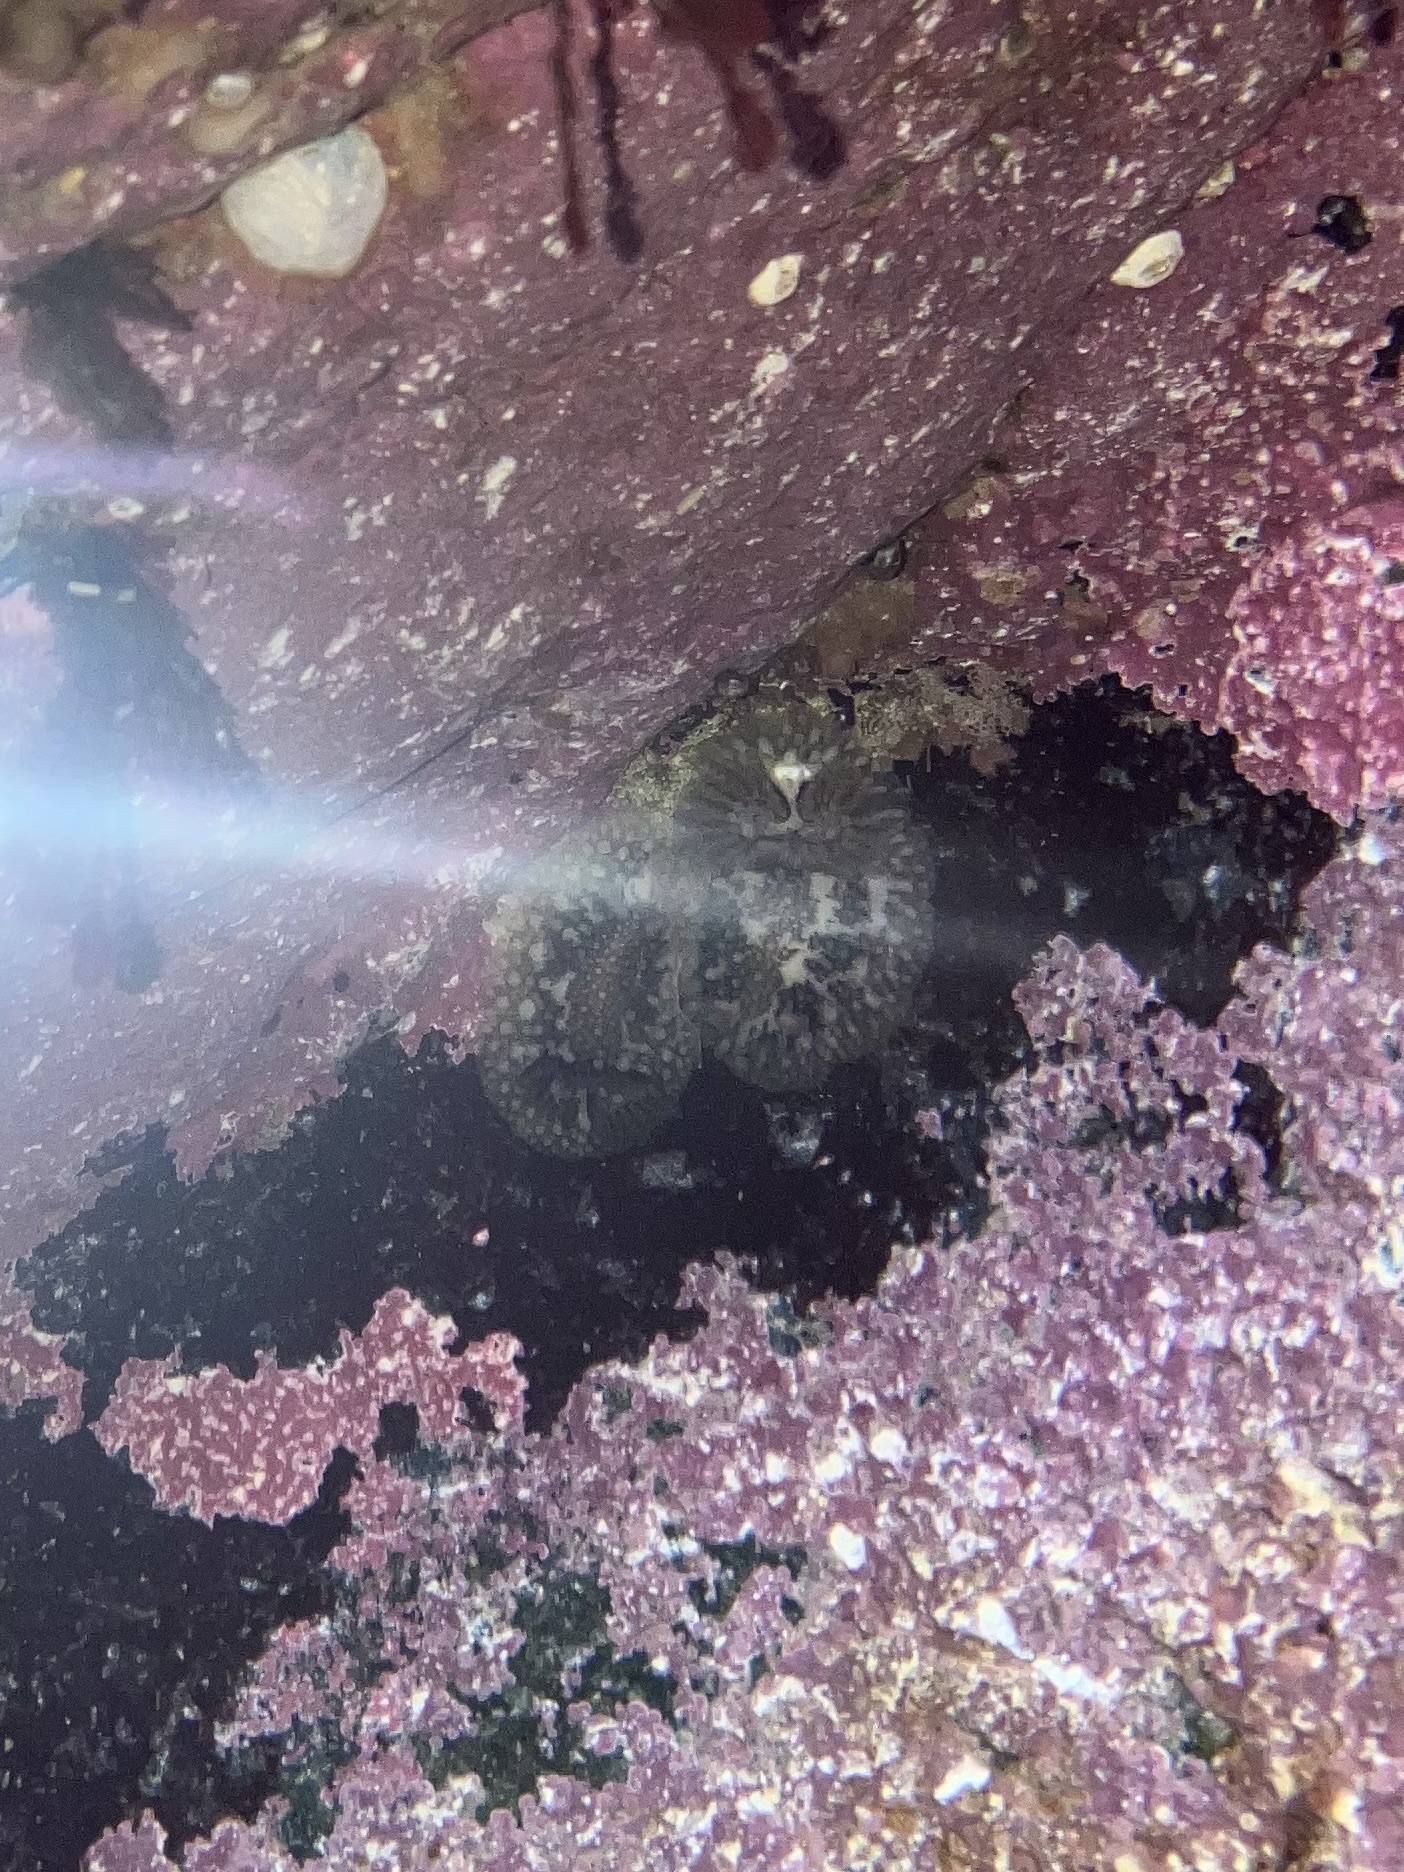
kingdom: Animalia
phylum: Mollusca
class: Gastropoda
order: Nudibranchia
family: Onchidorididae
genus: Onchidoris
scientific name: Onchidoris bilamellata
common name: Barnacle-eating onchidoris
